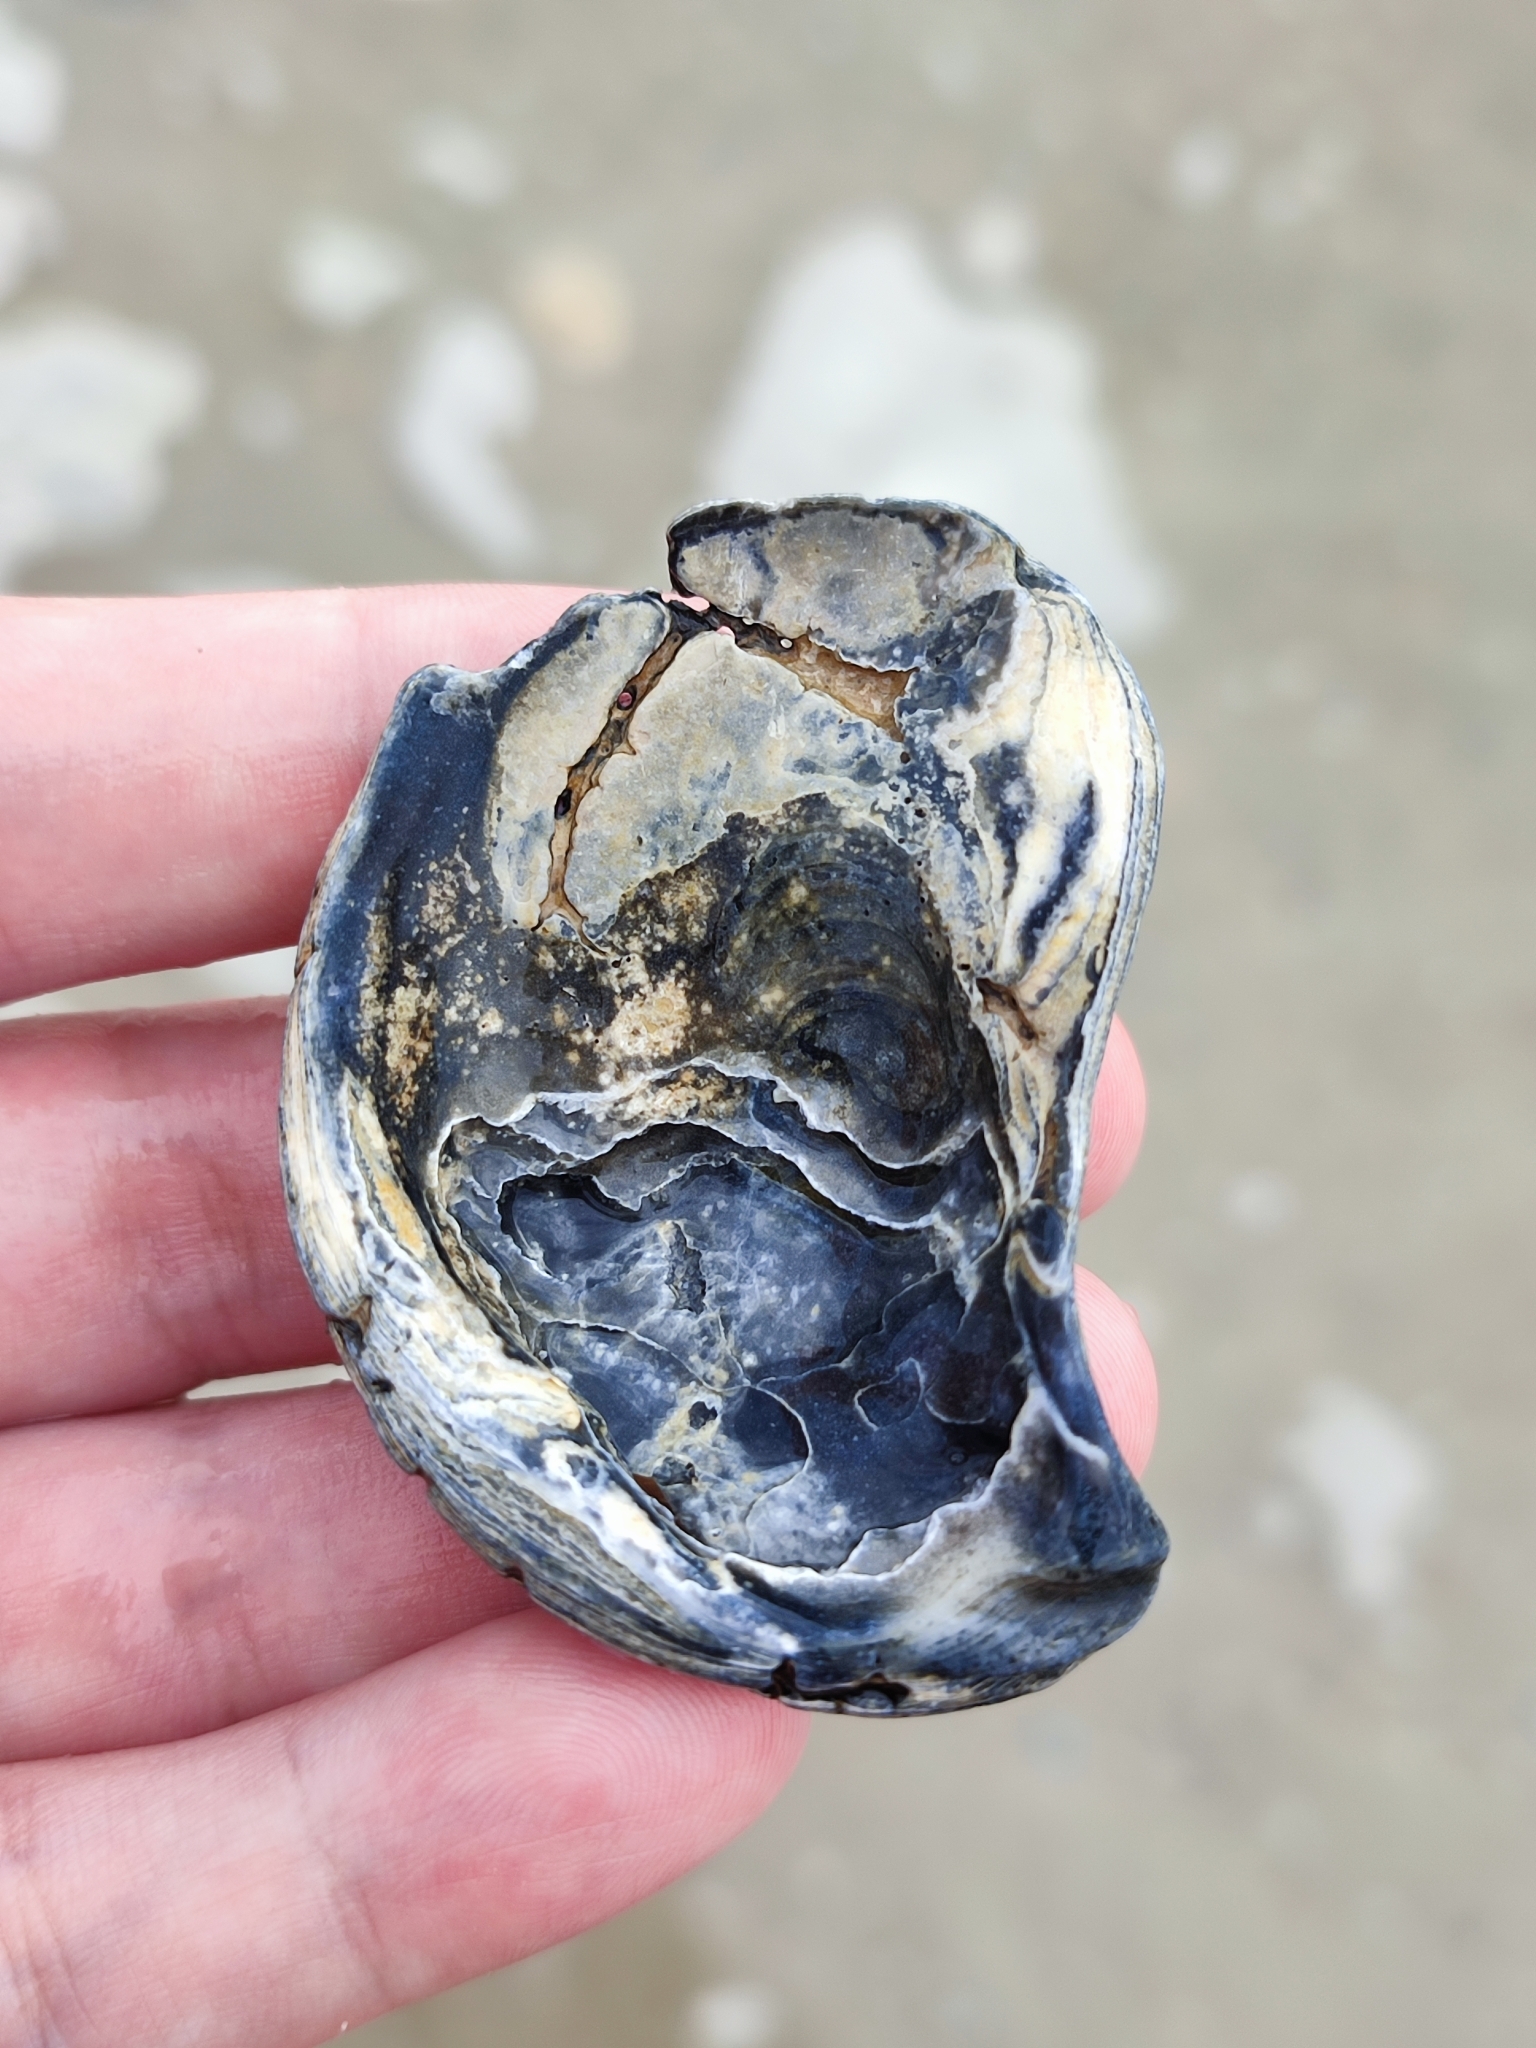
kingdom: Animalia
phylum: Mollusca
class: Bivalvia
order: Ostreida
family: Ostreidae
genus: Ostrea
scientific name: Ostrea edulis
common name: Flat oyster
